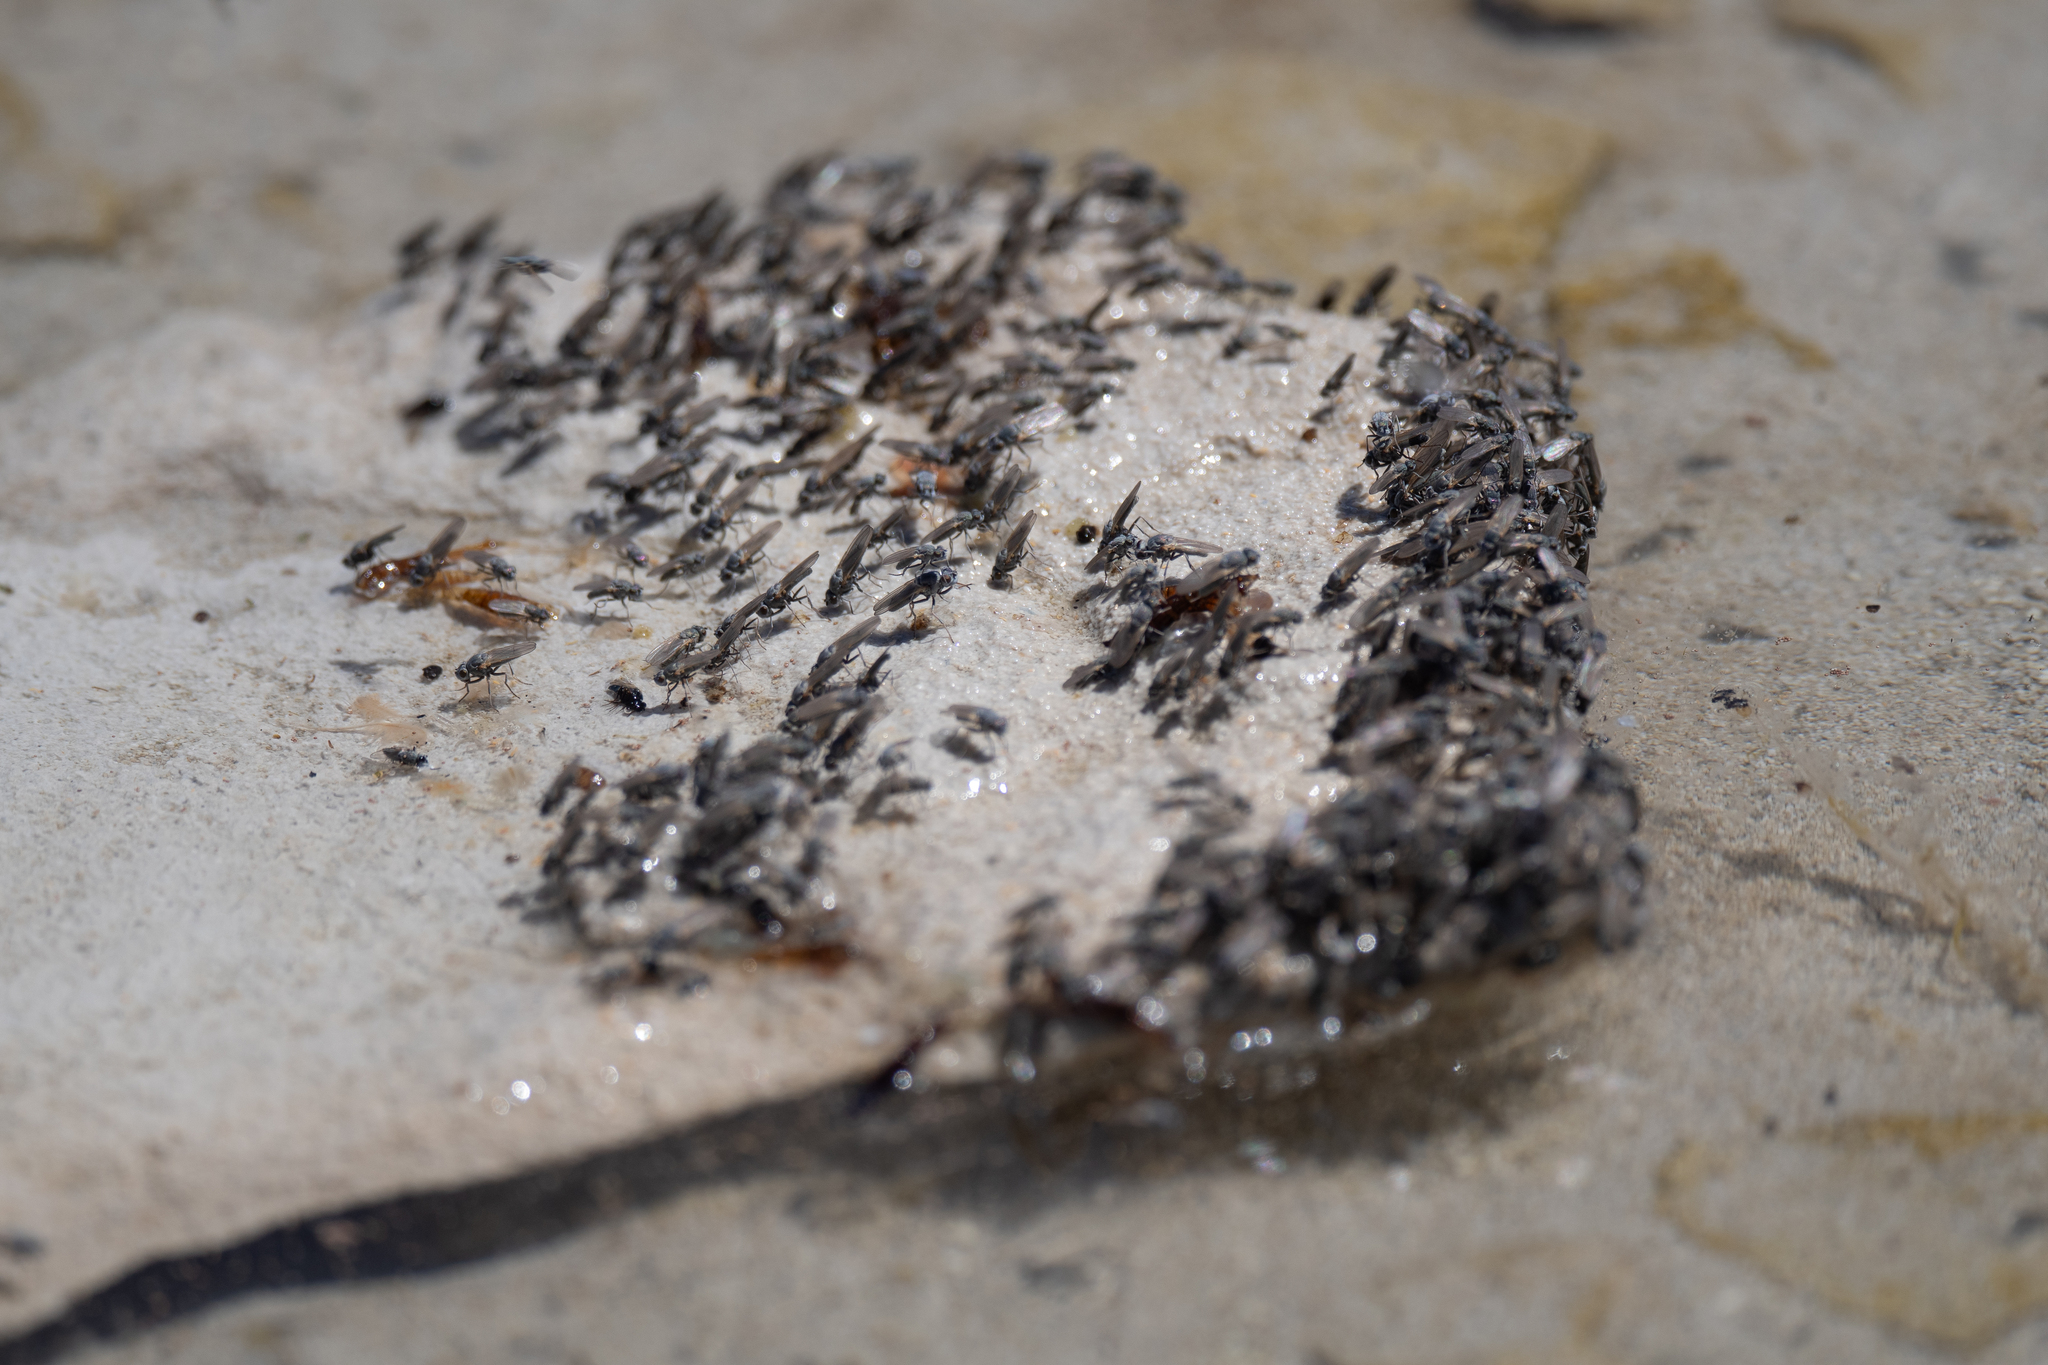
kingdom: Animalia
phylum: Arthropoda
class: Insecta
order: Diptera
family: Ephydridae
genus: Cirrula
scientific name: Cirrula hians
